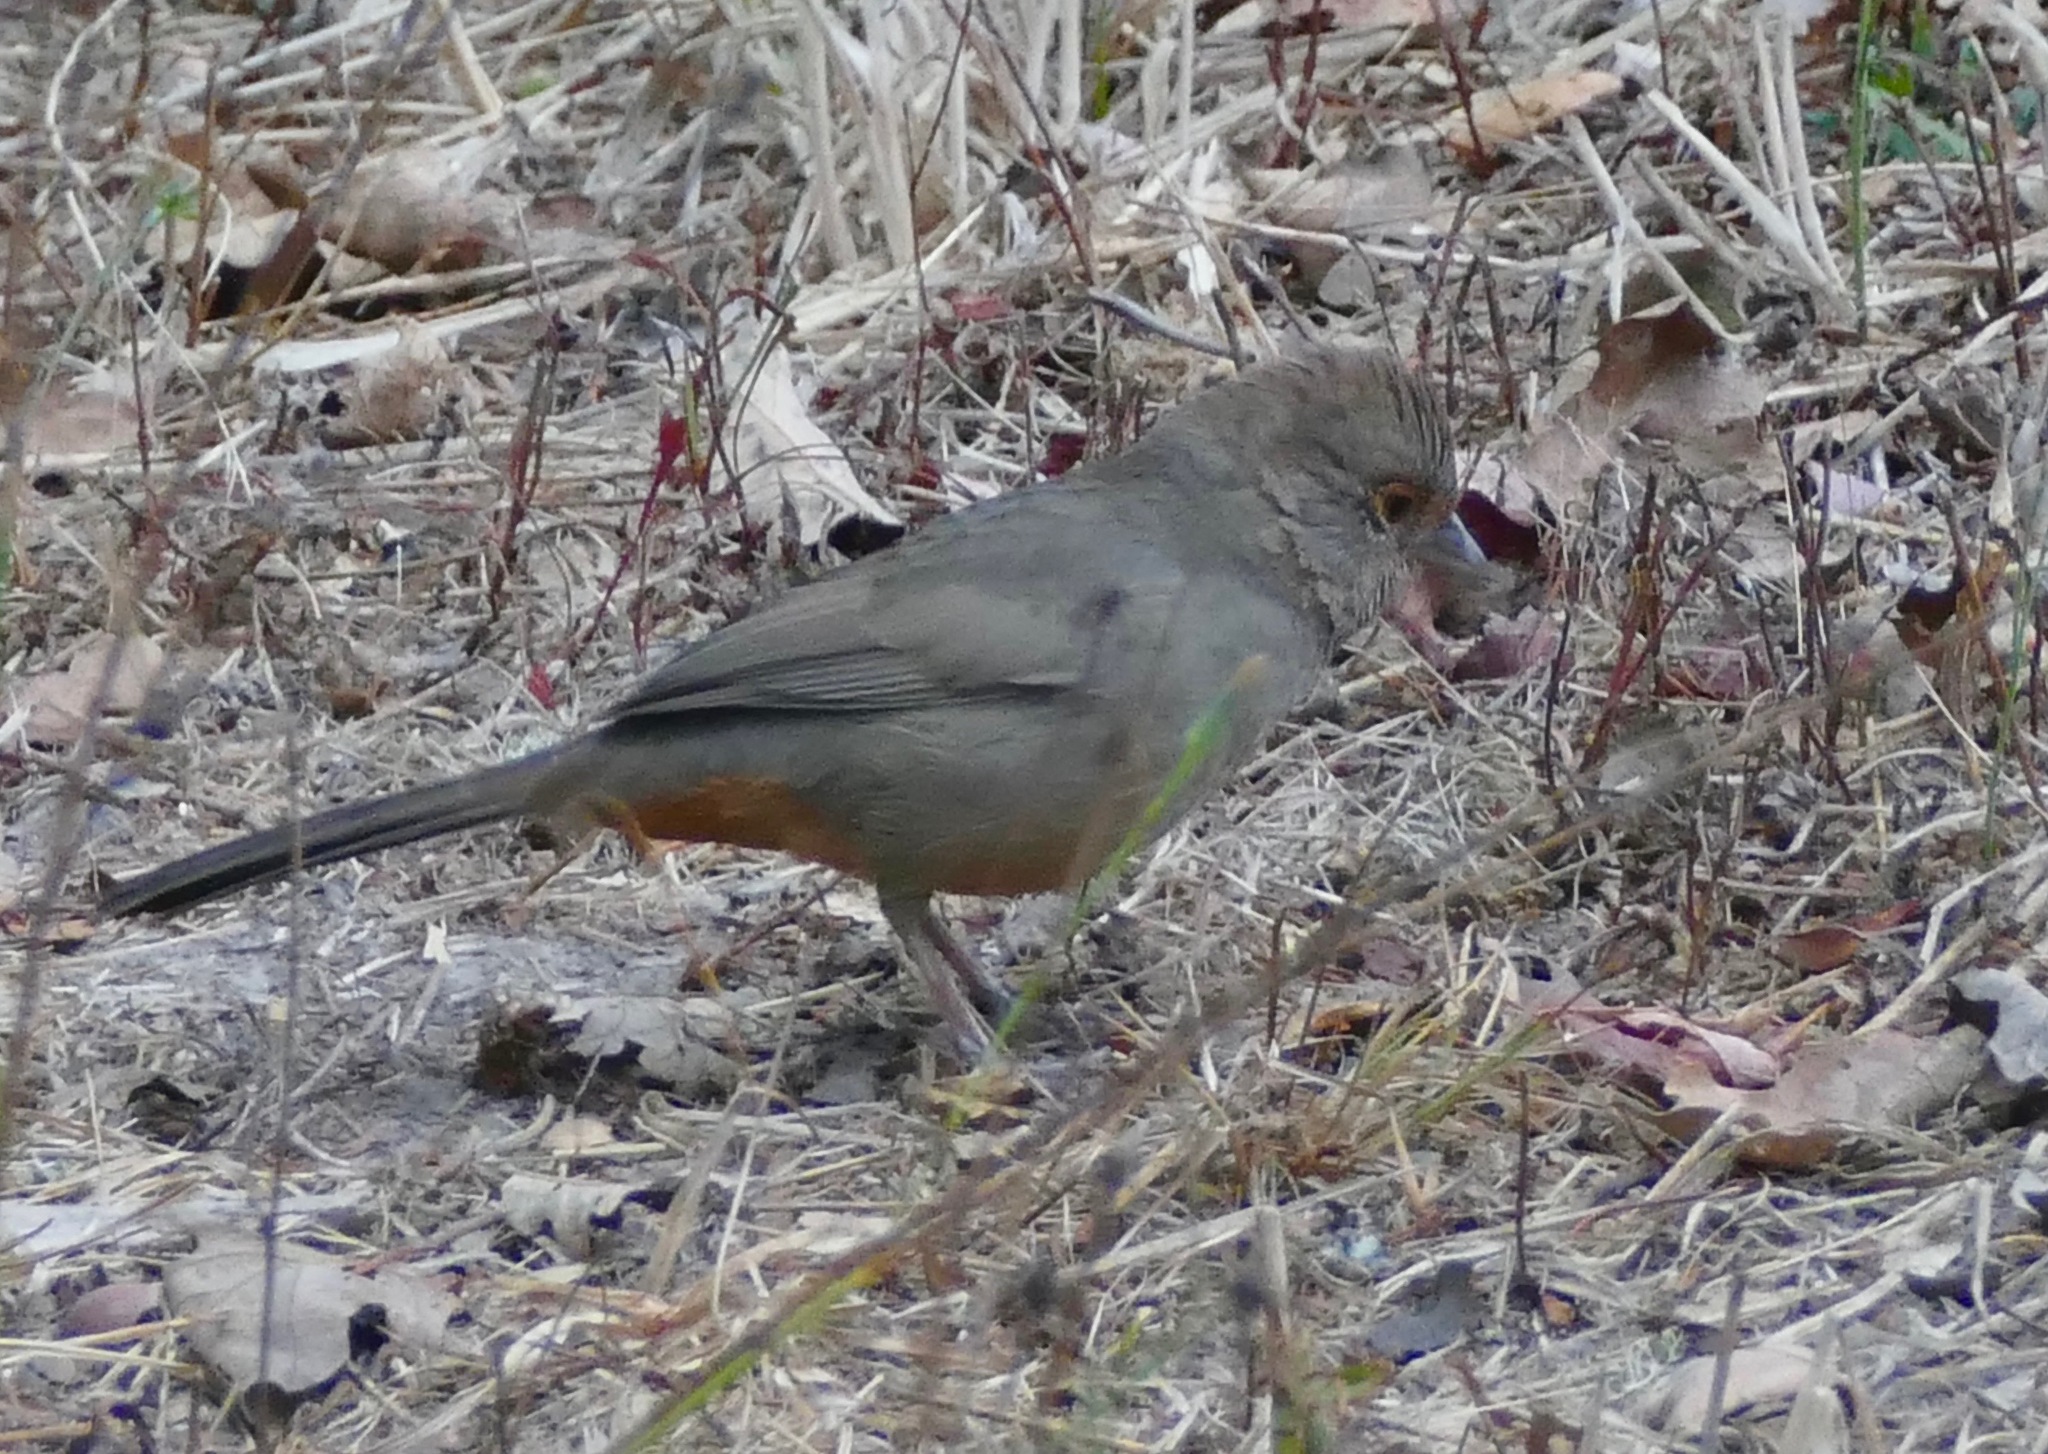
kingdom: Animalia
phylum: Chordata
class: Aves
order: Passeriformes
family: Passerellidae
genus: Melozone
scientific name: Melozone crissalis
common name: California towhee
